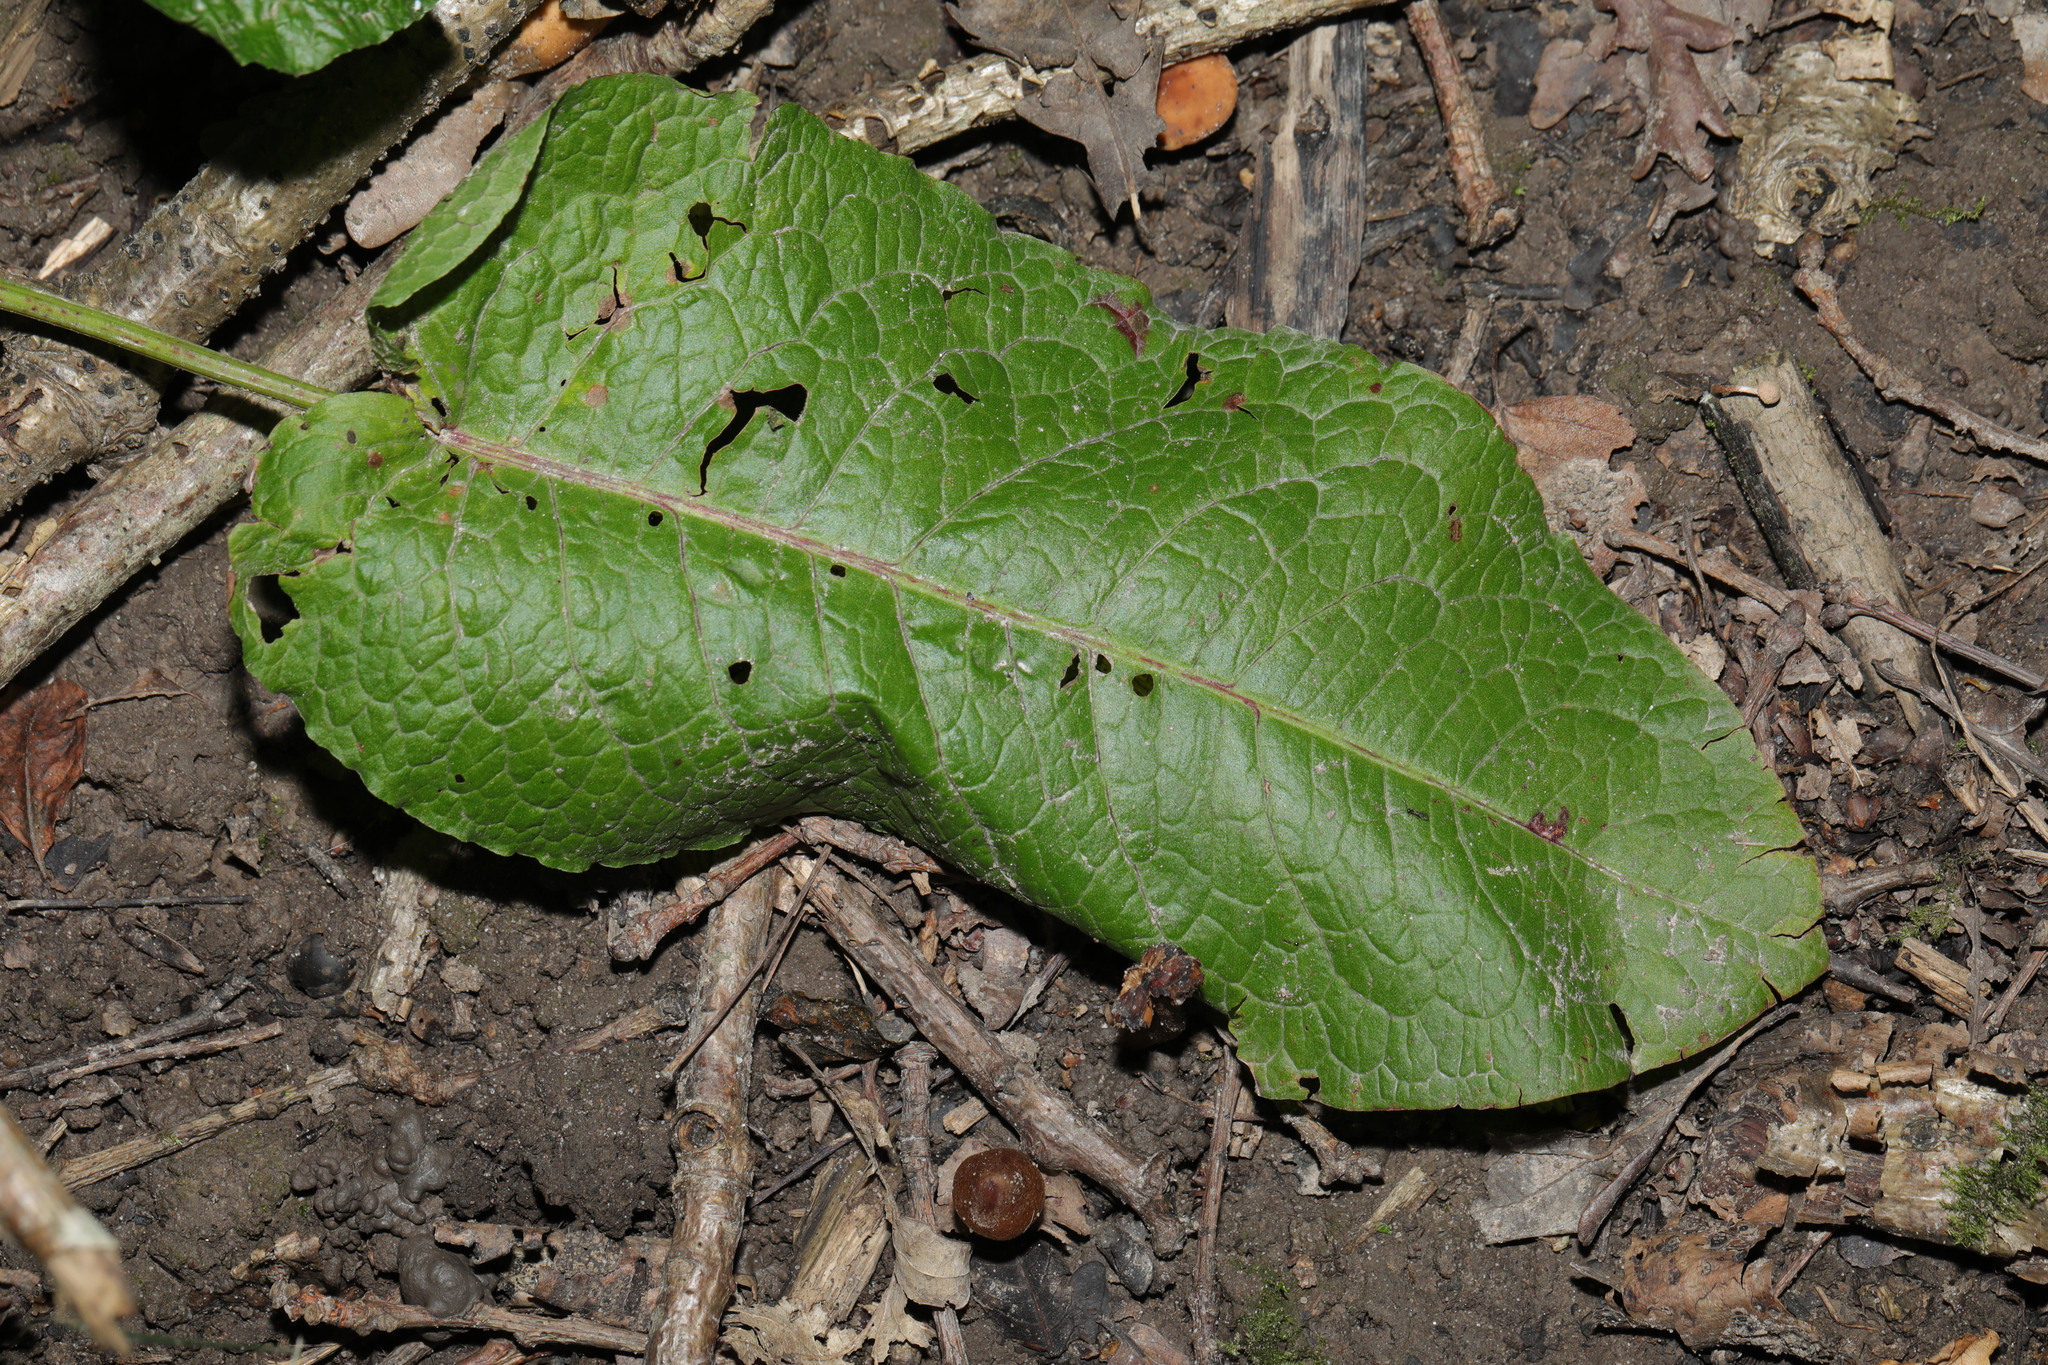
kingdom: Plantae
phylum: Tracheophyta
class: Magnoliopsida
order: Caryophyllales
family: Polygonaceae
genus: Rumex
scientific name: Rumex obtusifolius
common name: Bitter dock
